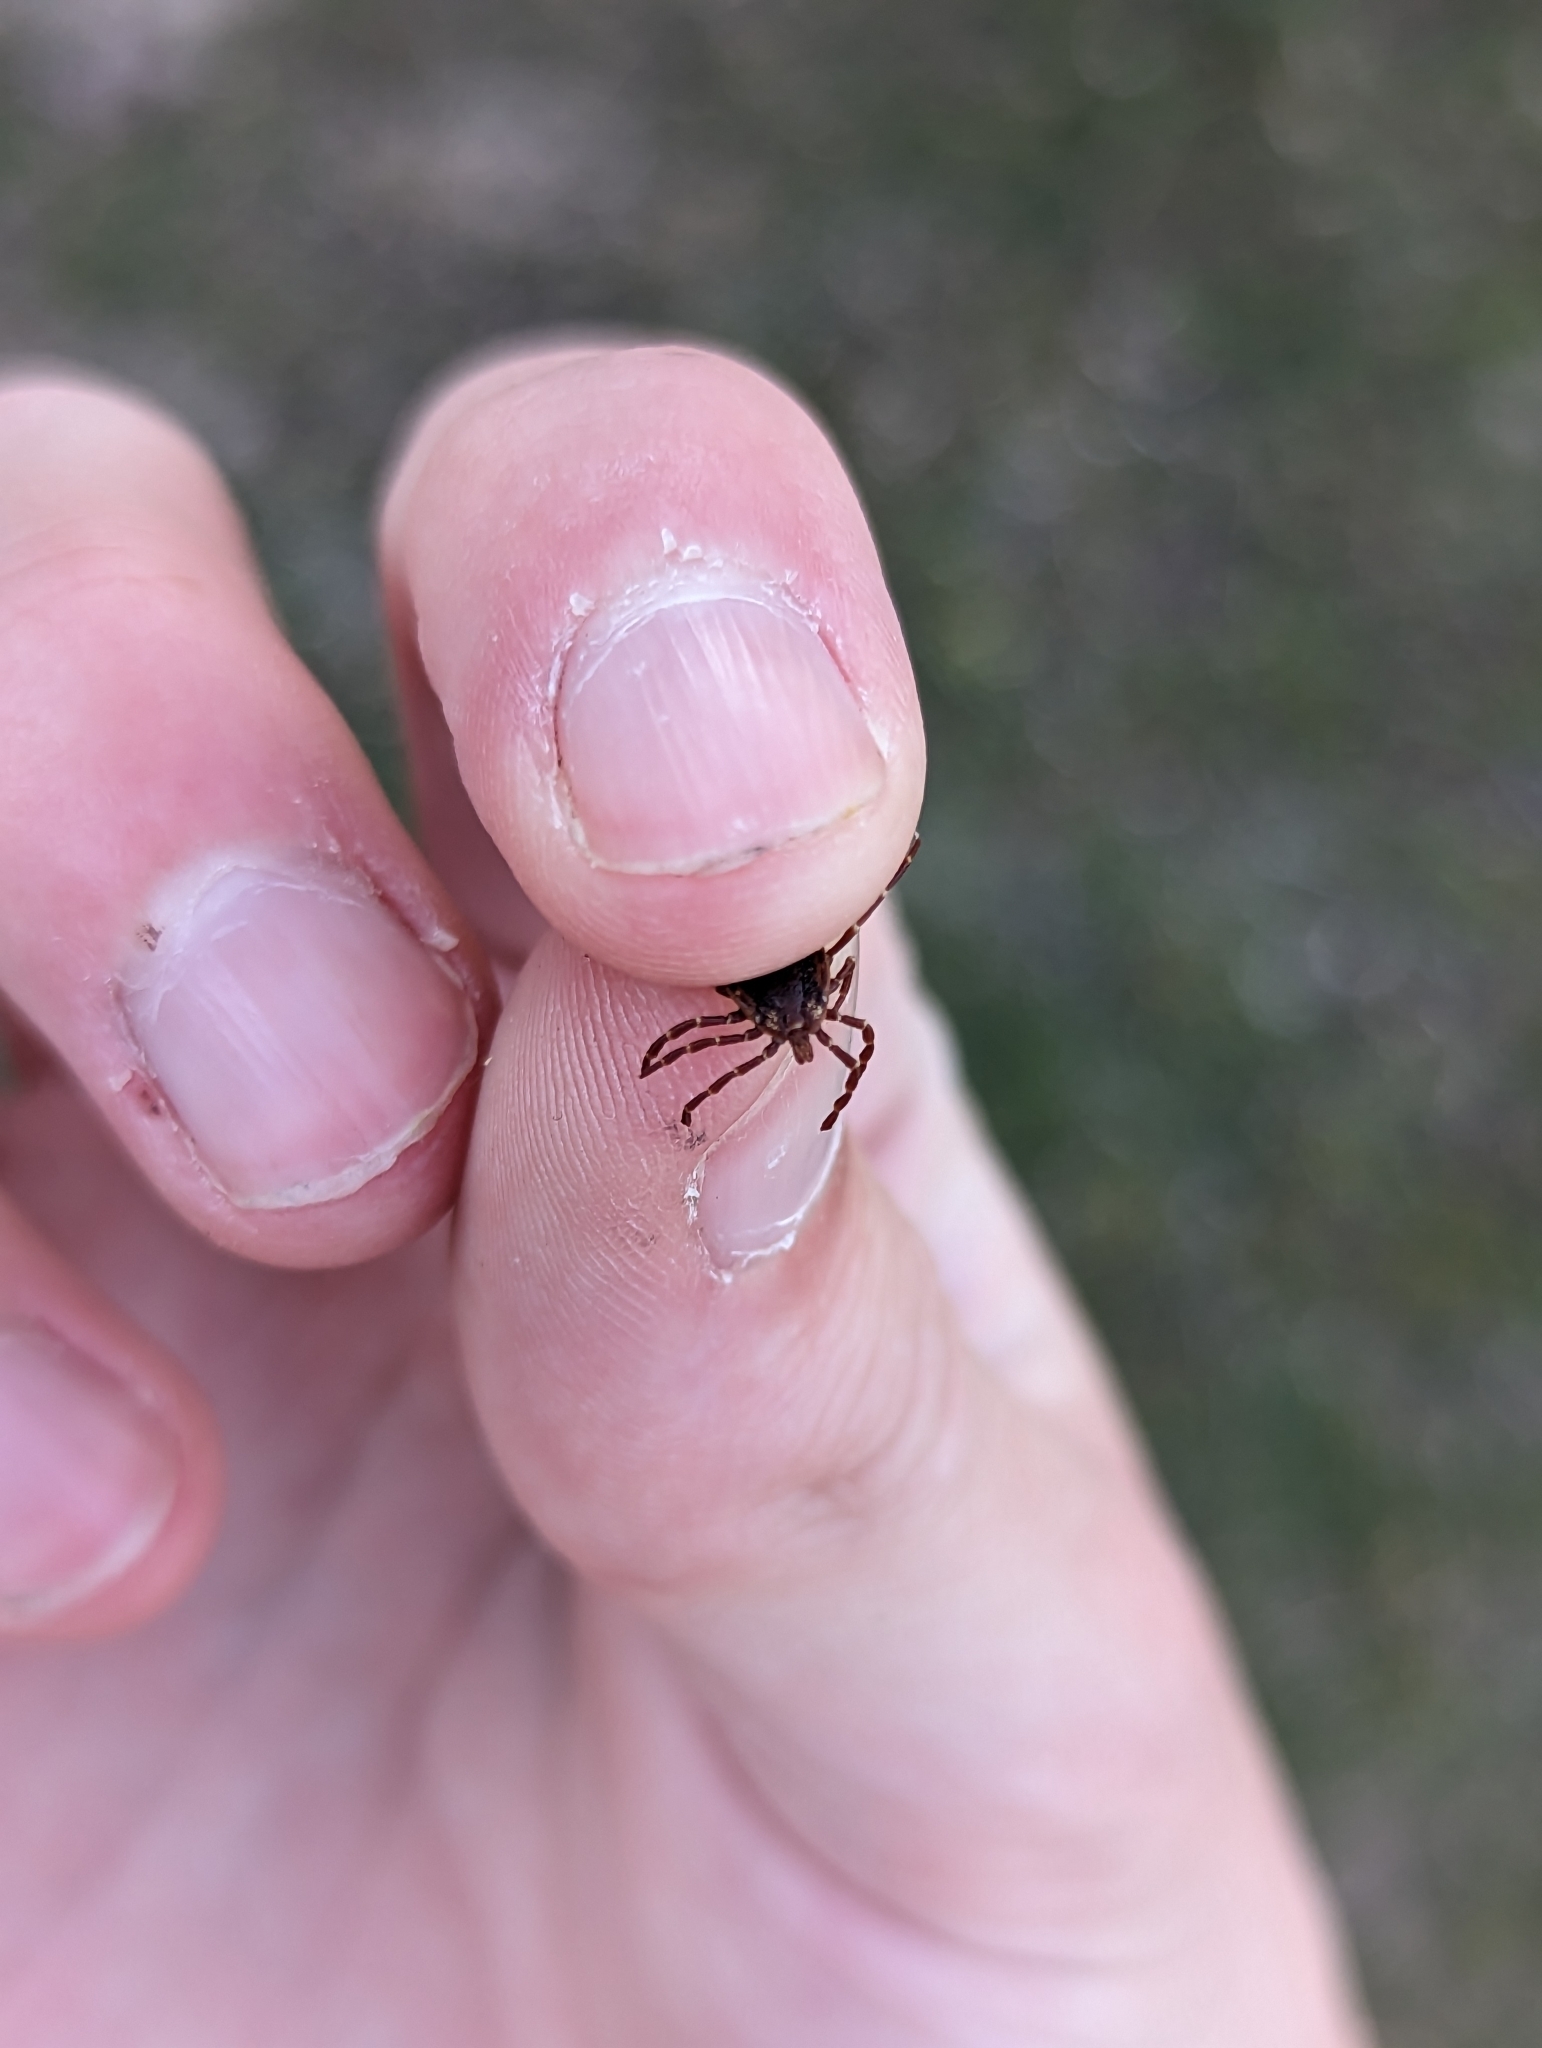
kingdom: Animalia
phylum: Arthropoda
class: Arachnida
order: Ixodida
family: Ixodidae
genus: Amblyomma
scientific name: Amblyomma triguttatum
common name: Kangaroo hard tick
